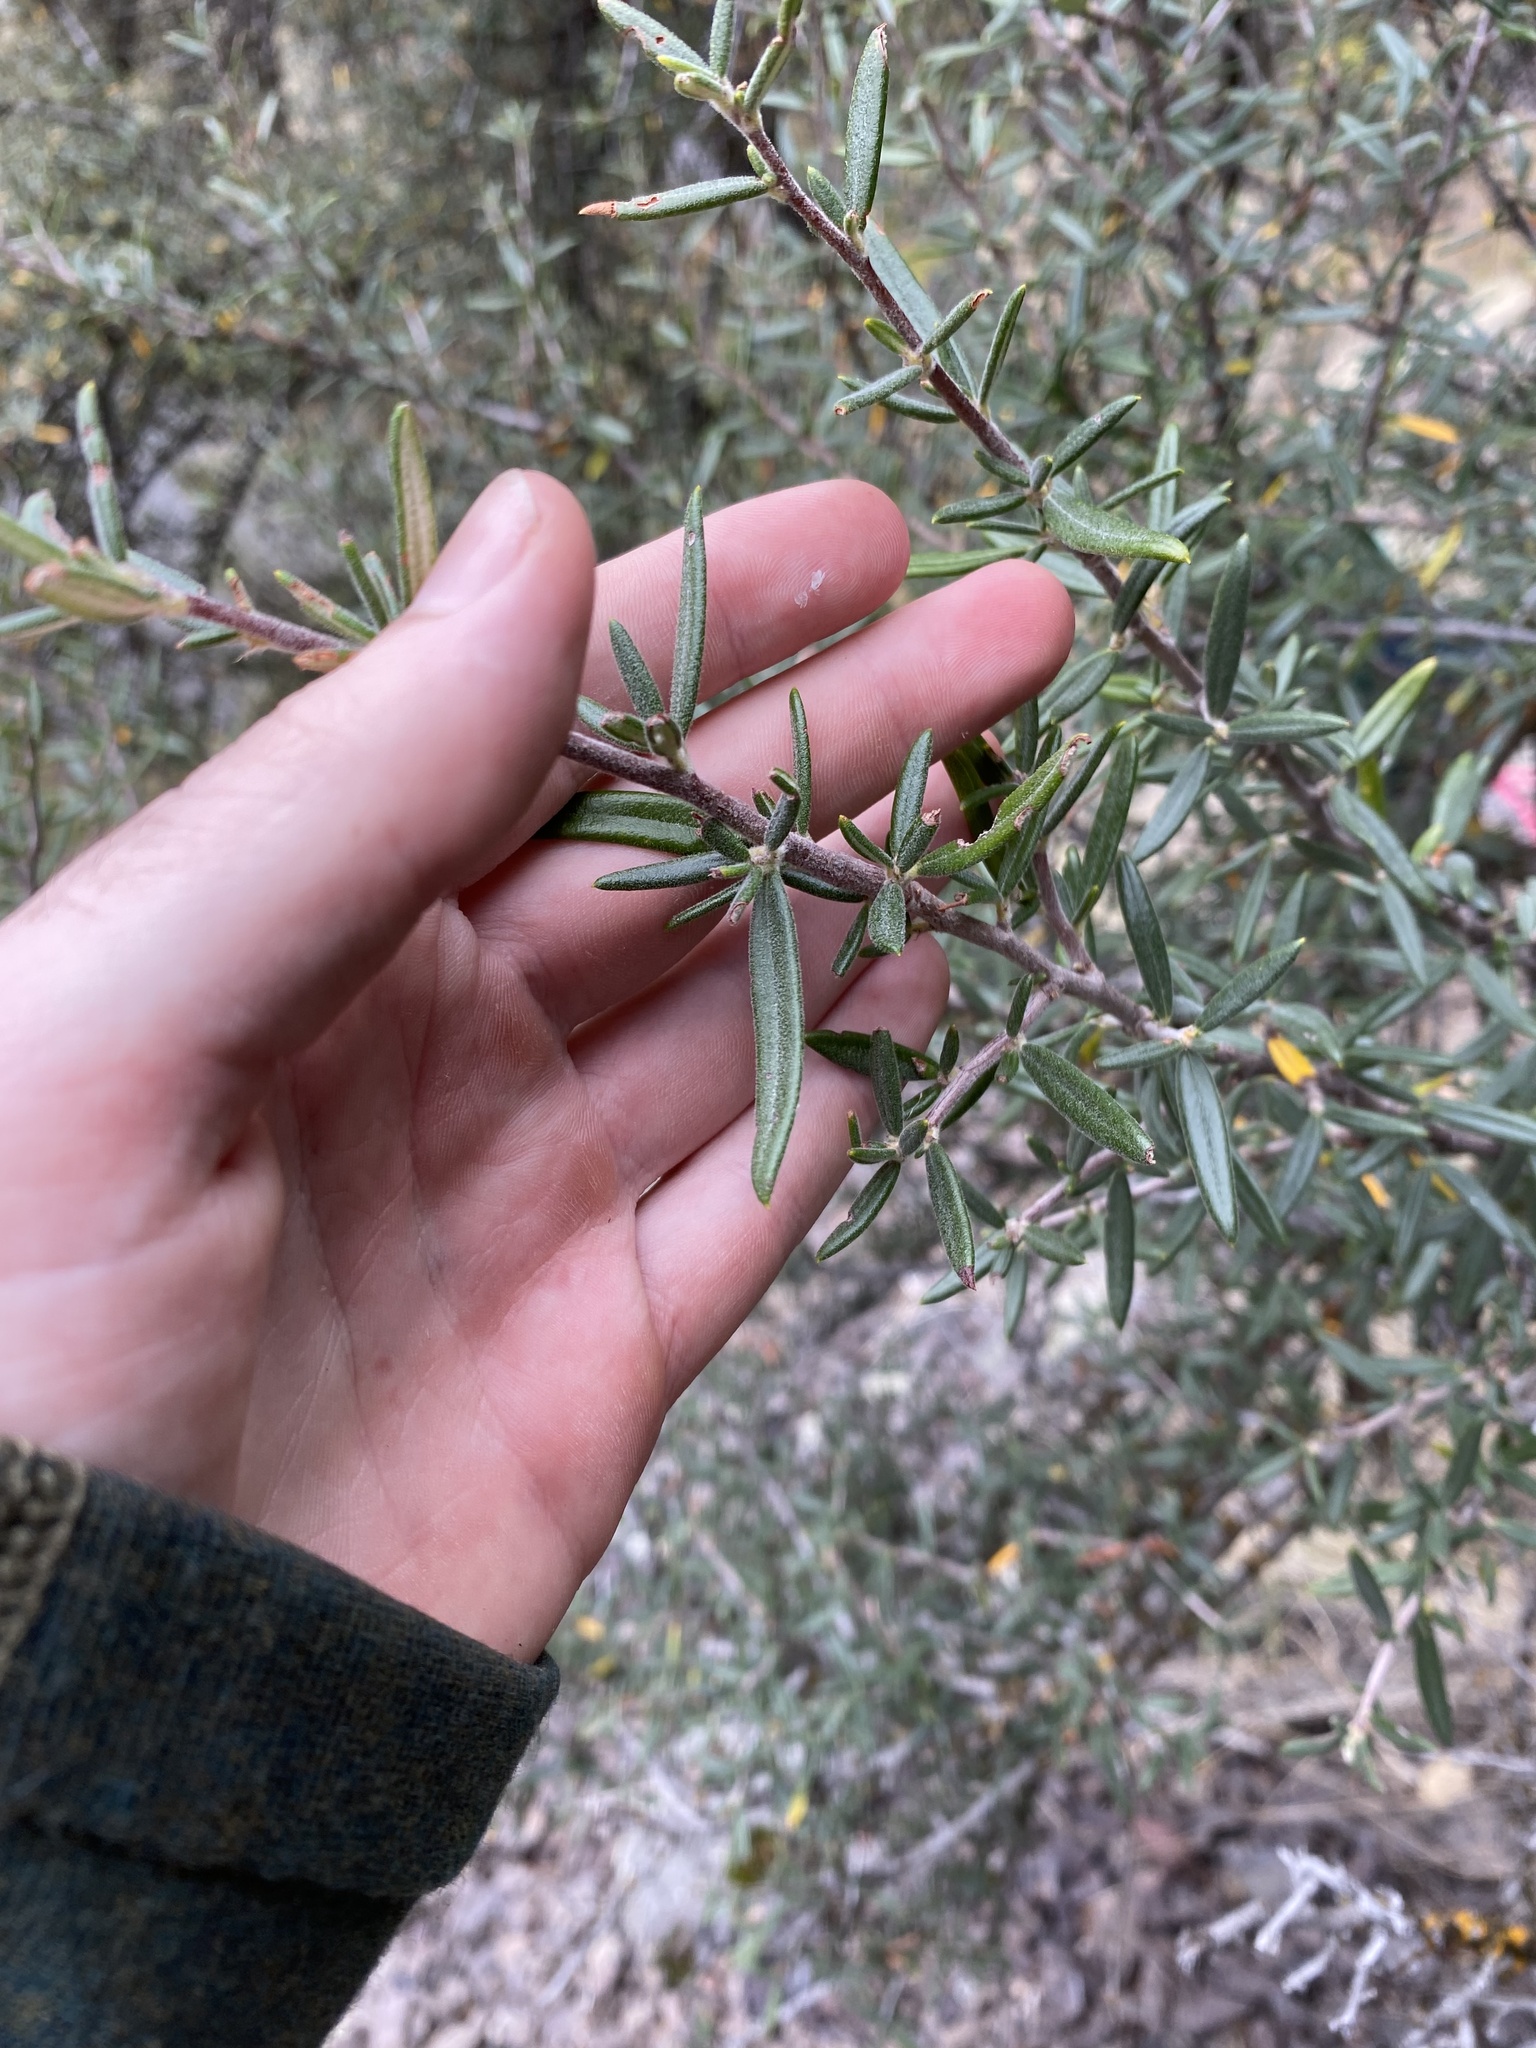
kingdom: Plantae
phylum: Tracheophyta
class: Magnoliopsida
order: Rosales
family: Rosaceae
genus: Cercocarpus
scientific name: Cercocarpus ledifolius
